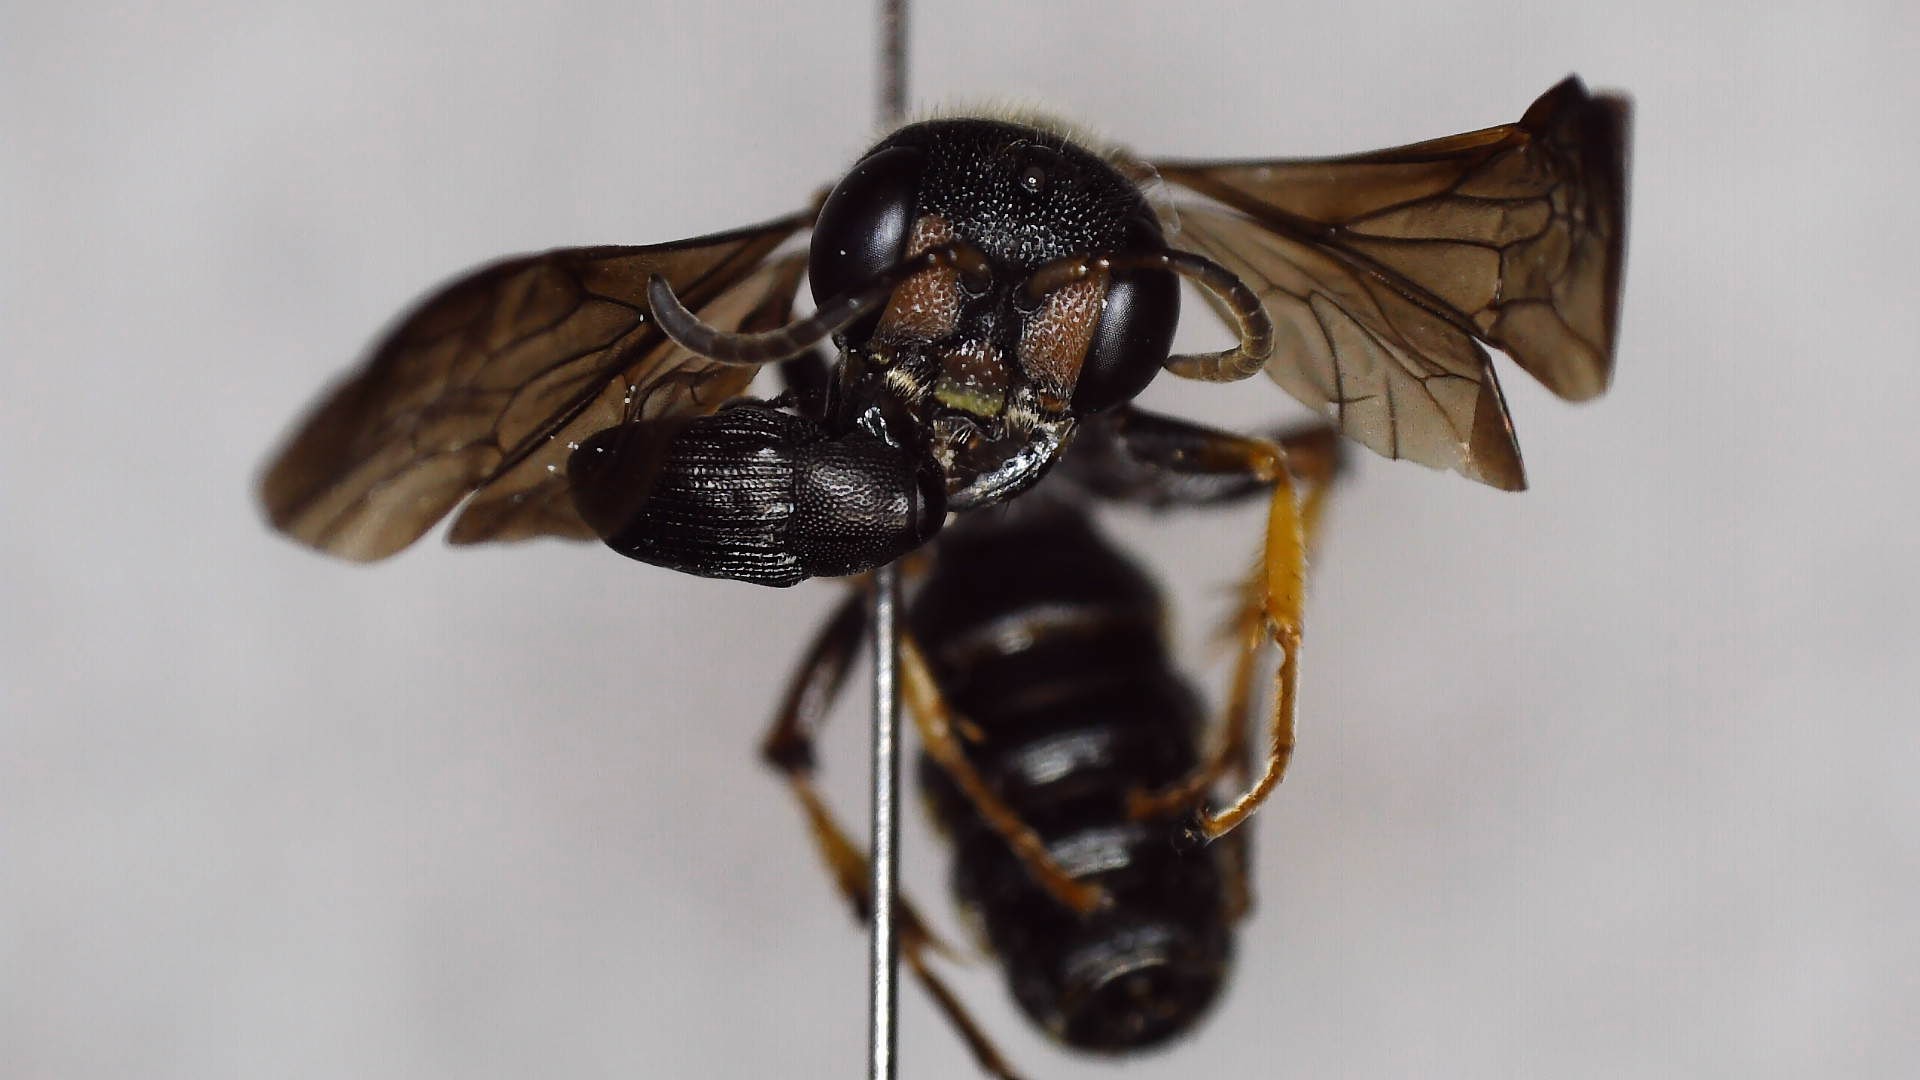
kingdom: Animalia
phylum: Arthropoda
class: Insecta
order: Hymenoptera
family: Crabronidae
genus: Cerceris
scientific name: Cerceris clypeata
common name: Weevil wasp
